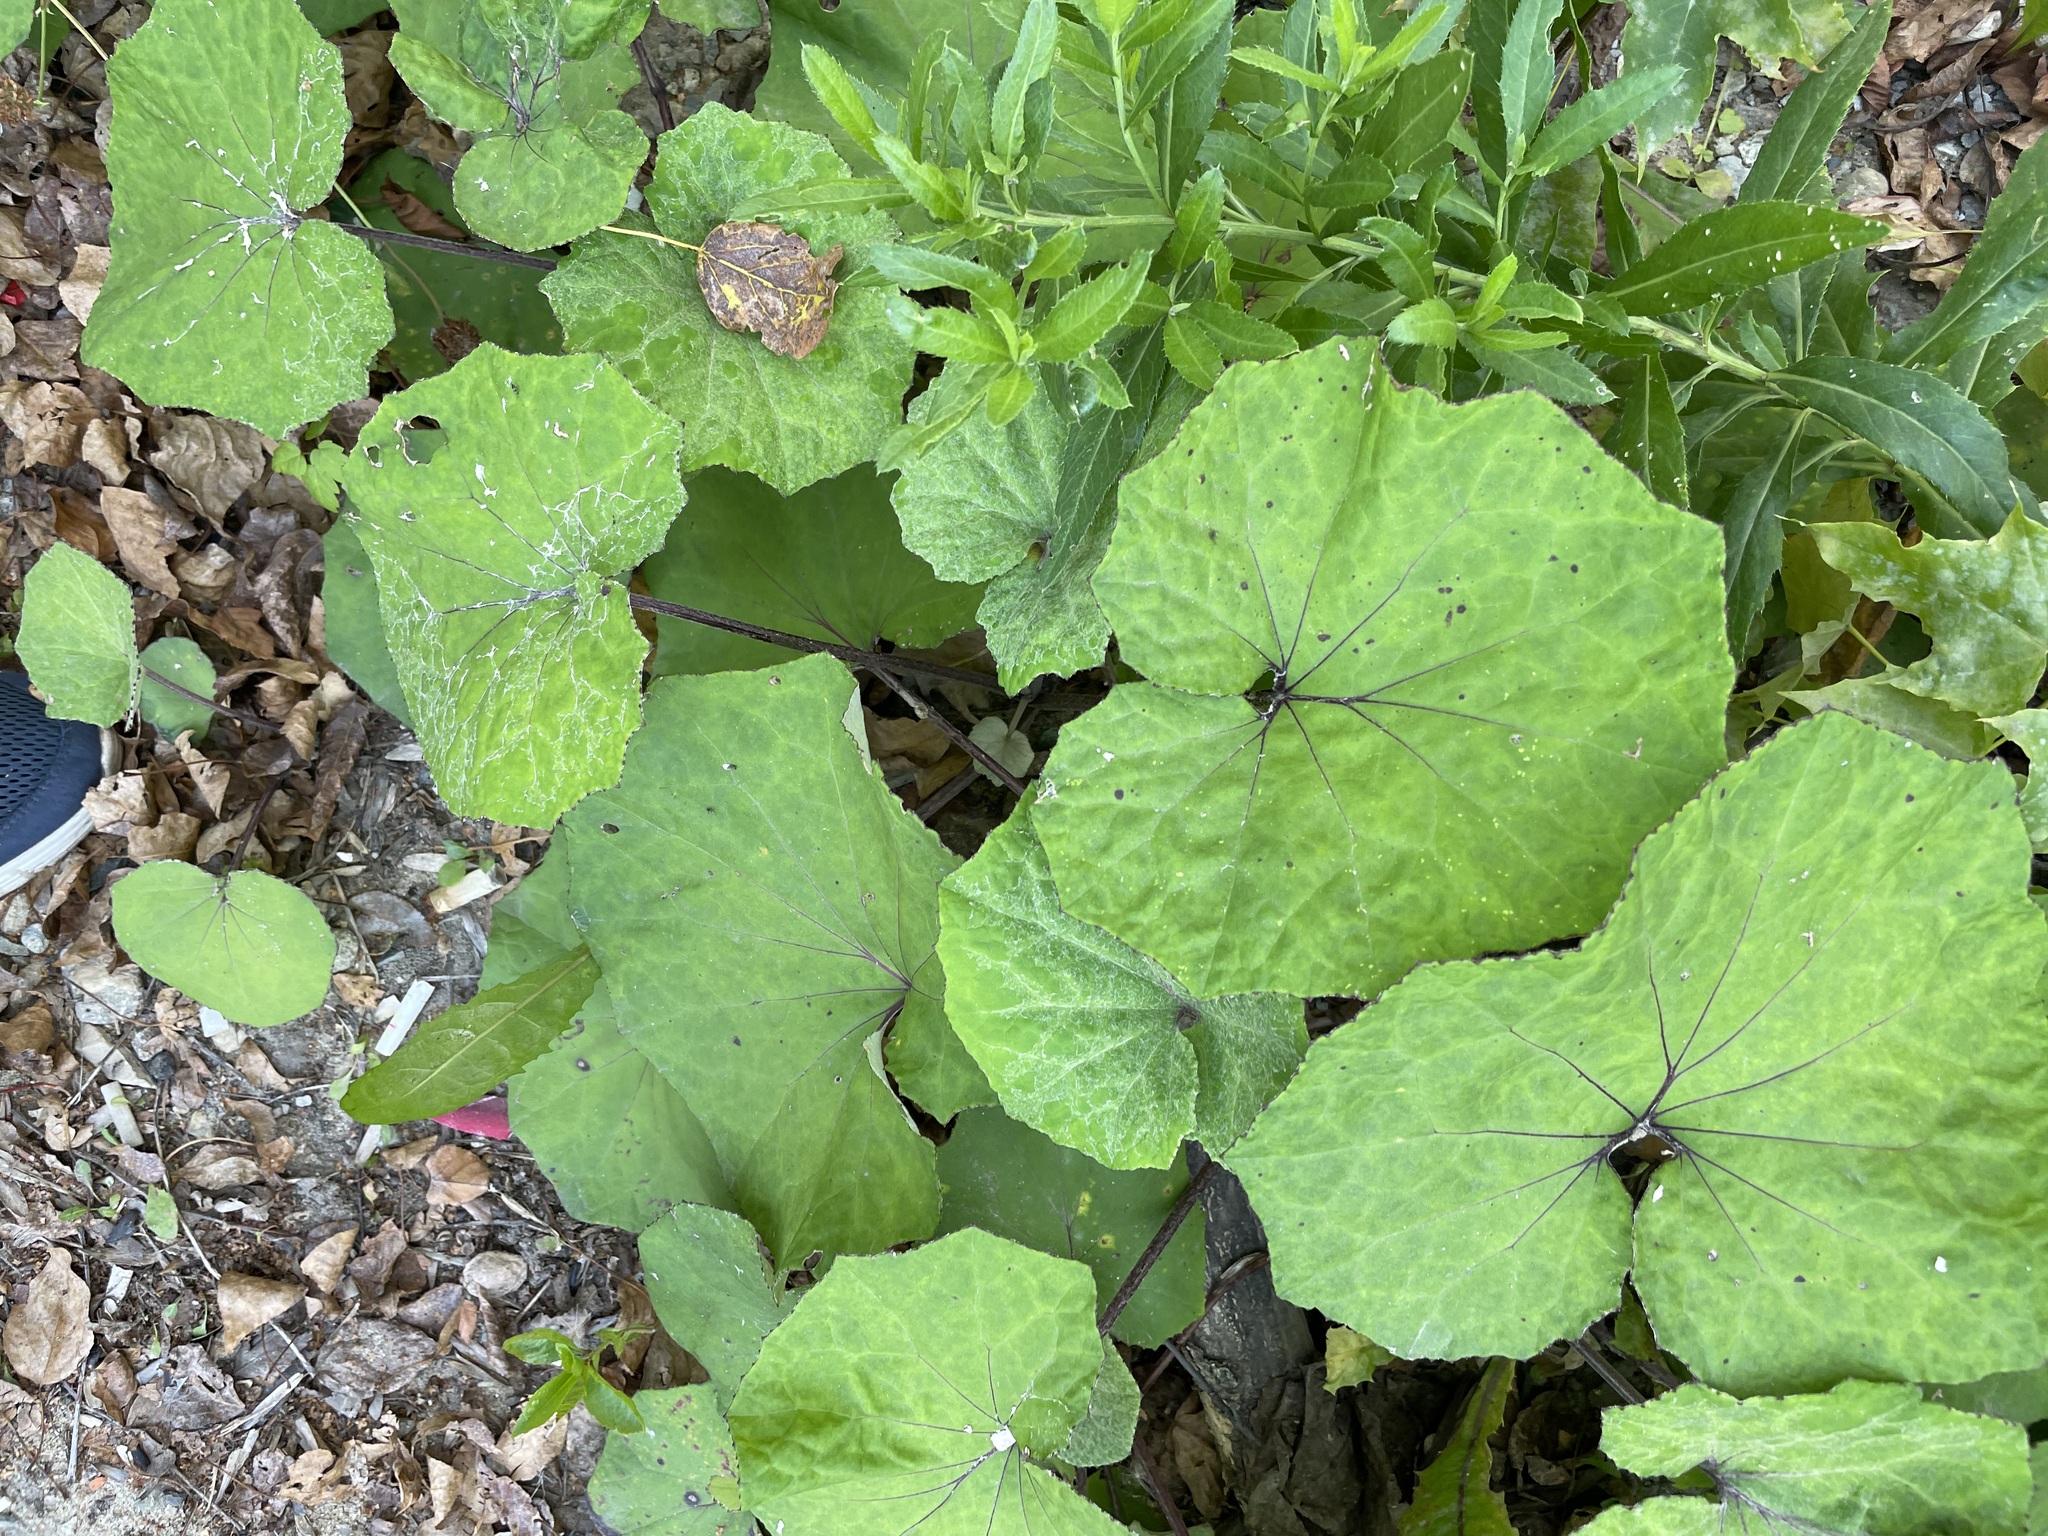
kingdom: Plantae
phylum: Tracheophyta
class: Magnoliopsida
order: Asterales
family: Asteraceae
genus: Tussilago
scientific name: Tussilago farfara
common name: Coltsfoot
